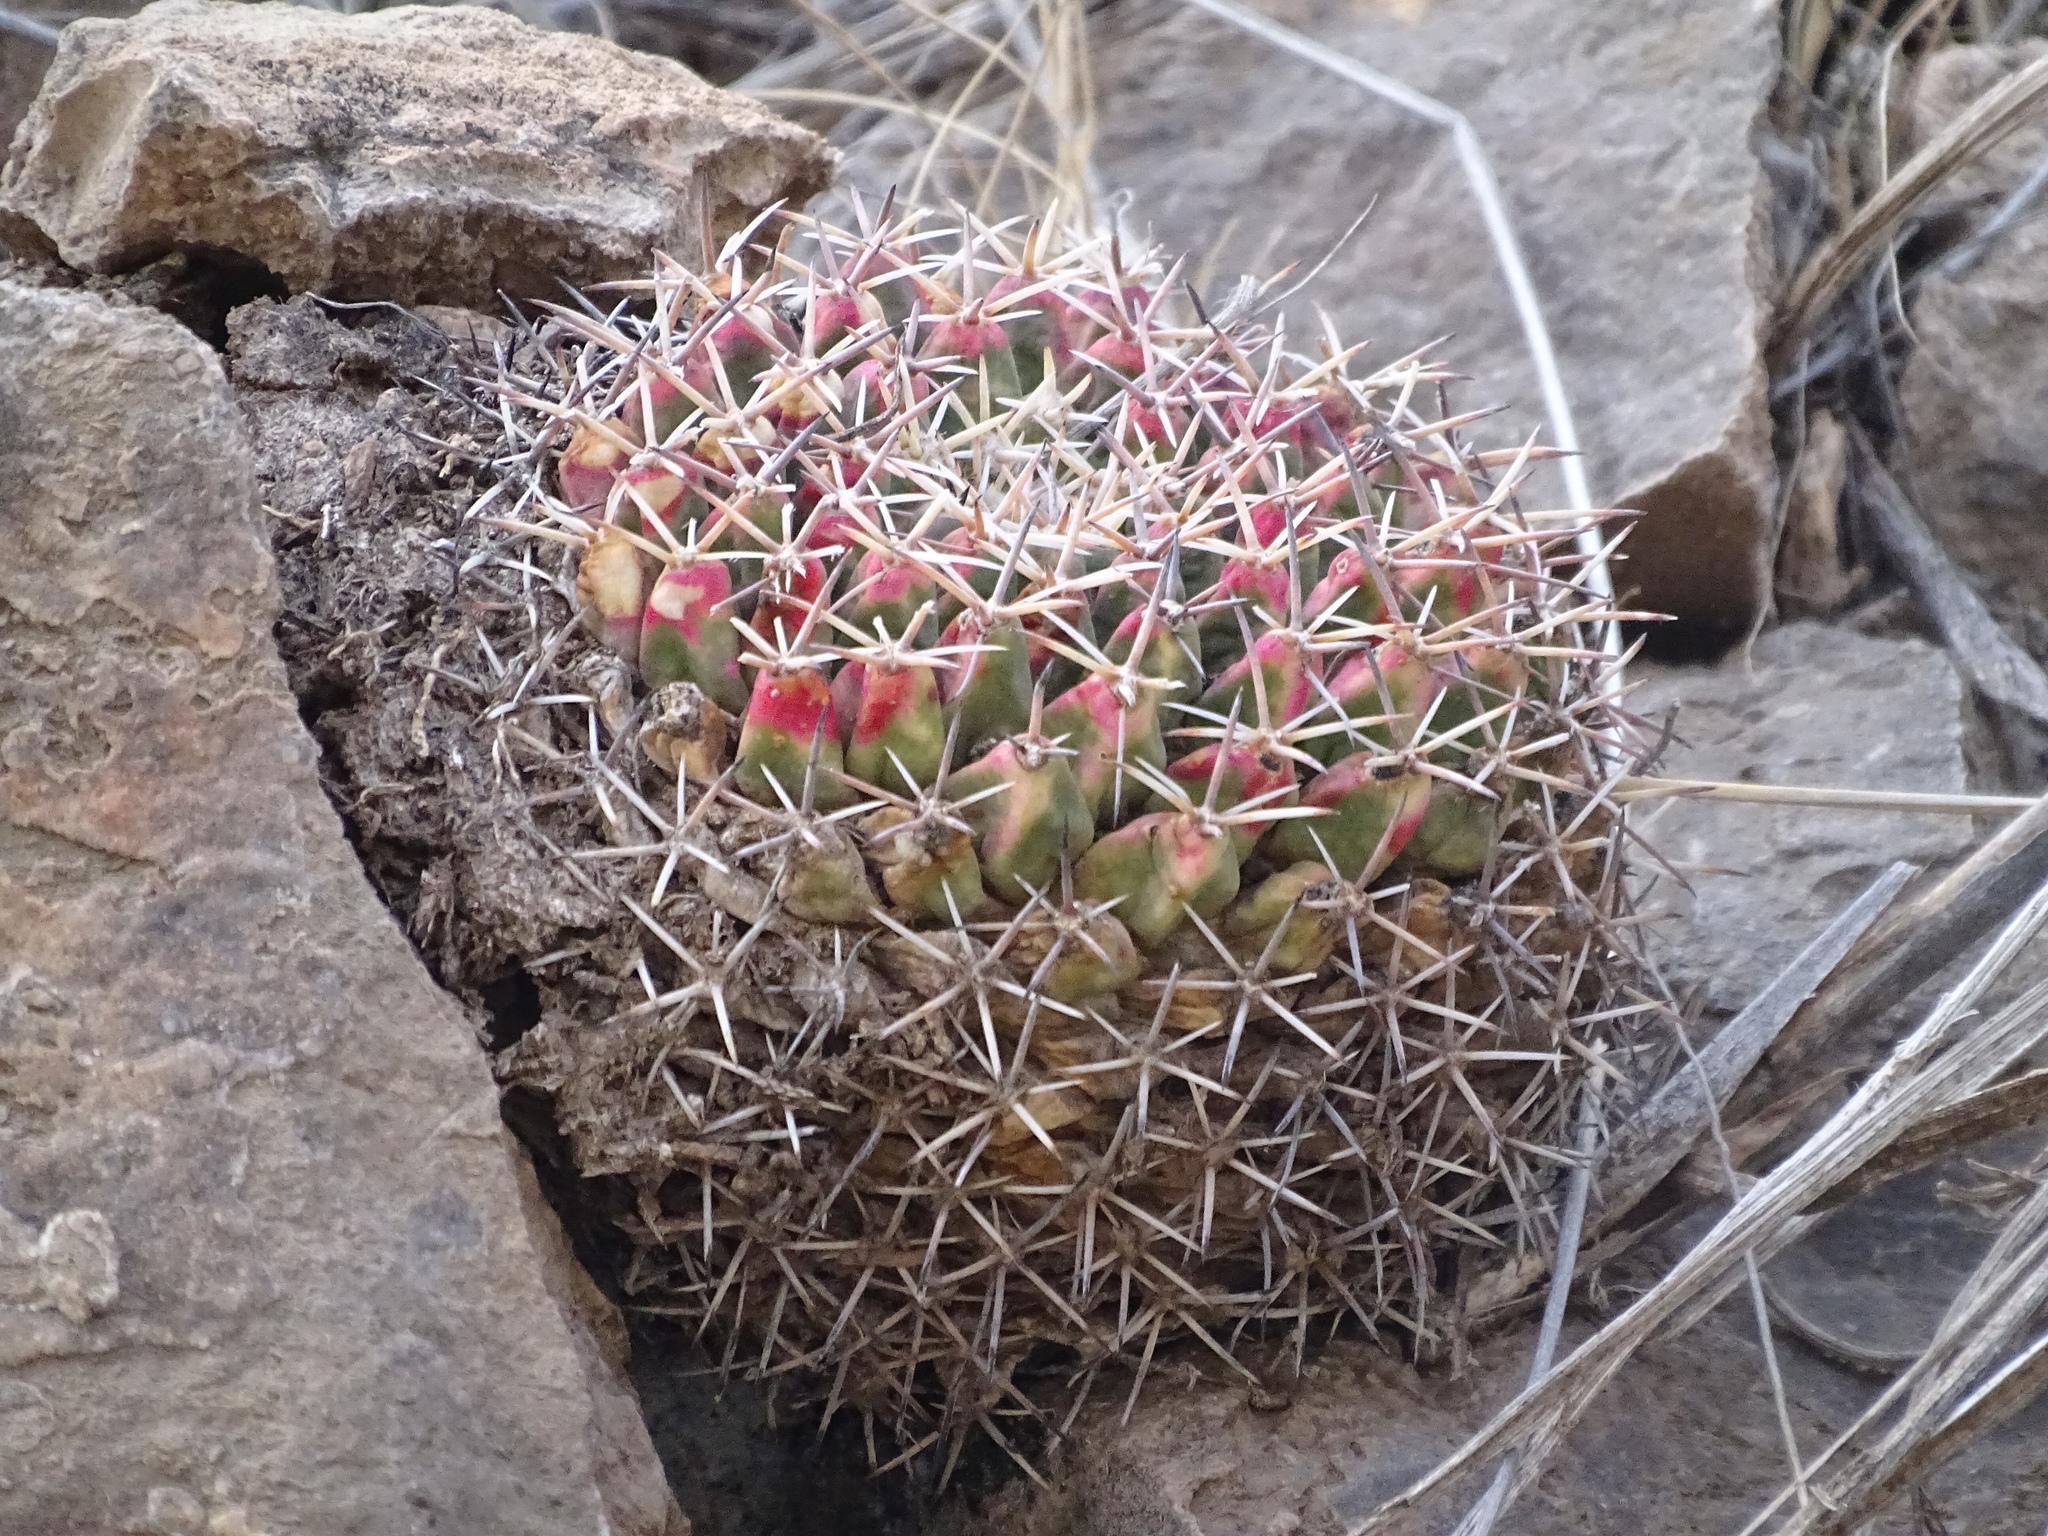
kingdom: Plantae
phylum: Tracheophyta
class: Magnoliopsida
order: Caryophyllales
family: Cactaceae
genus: Mammillaria
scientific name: Mammillaria heyderi
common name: Little nipple cactus
